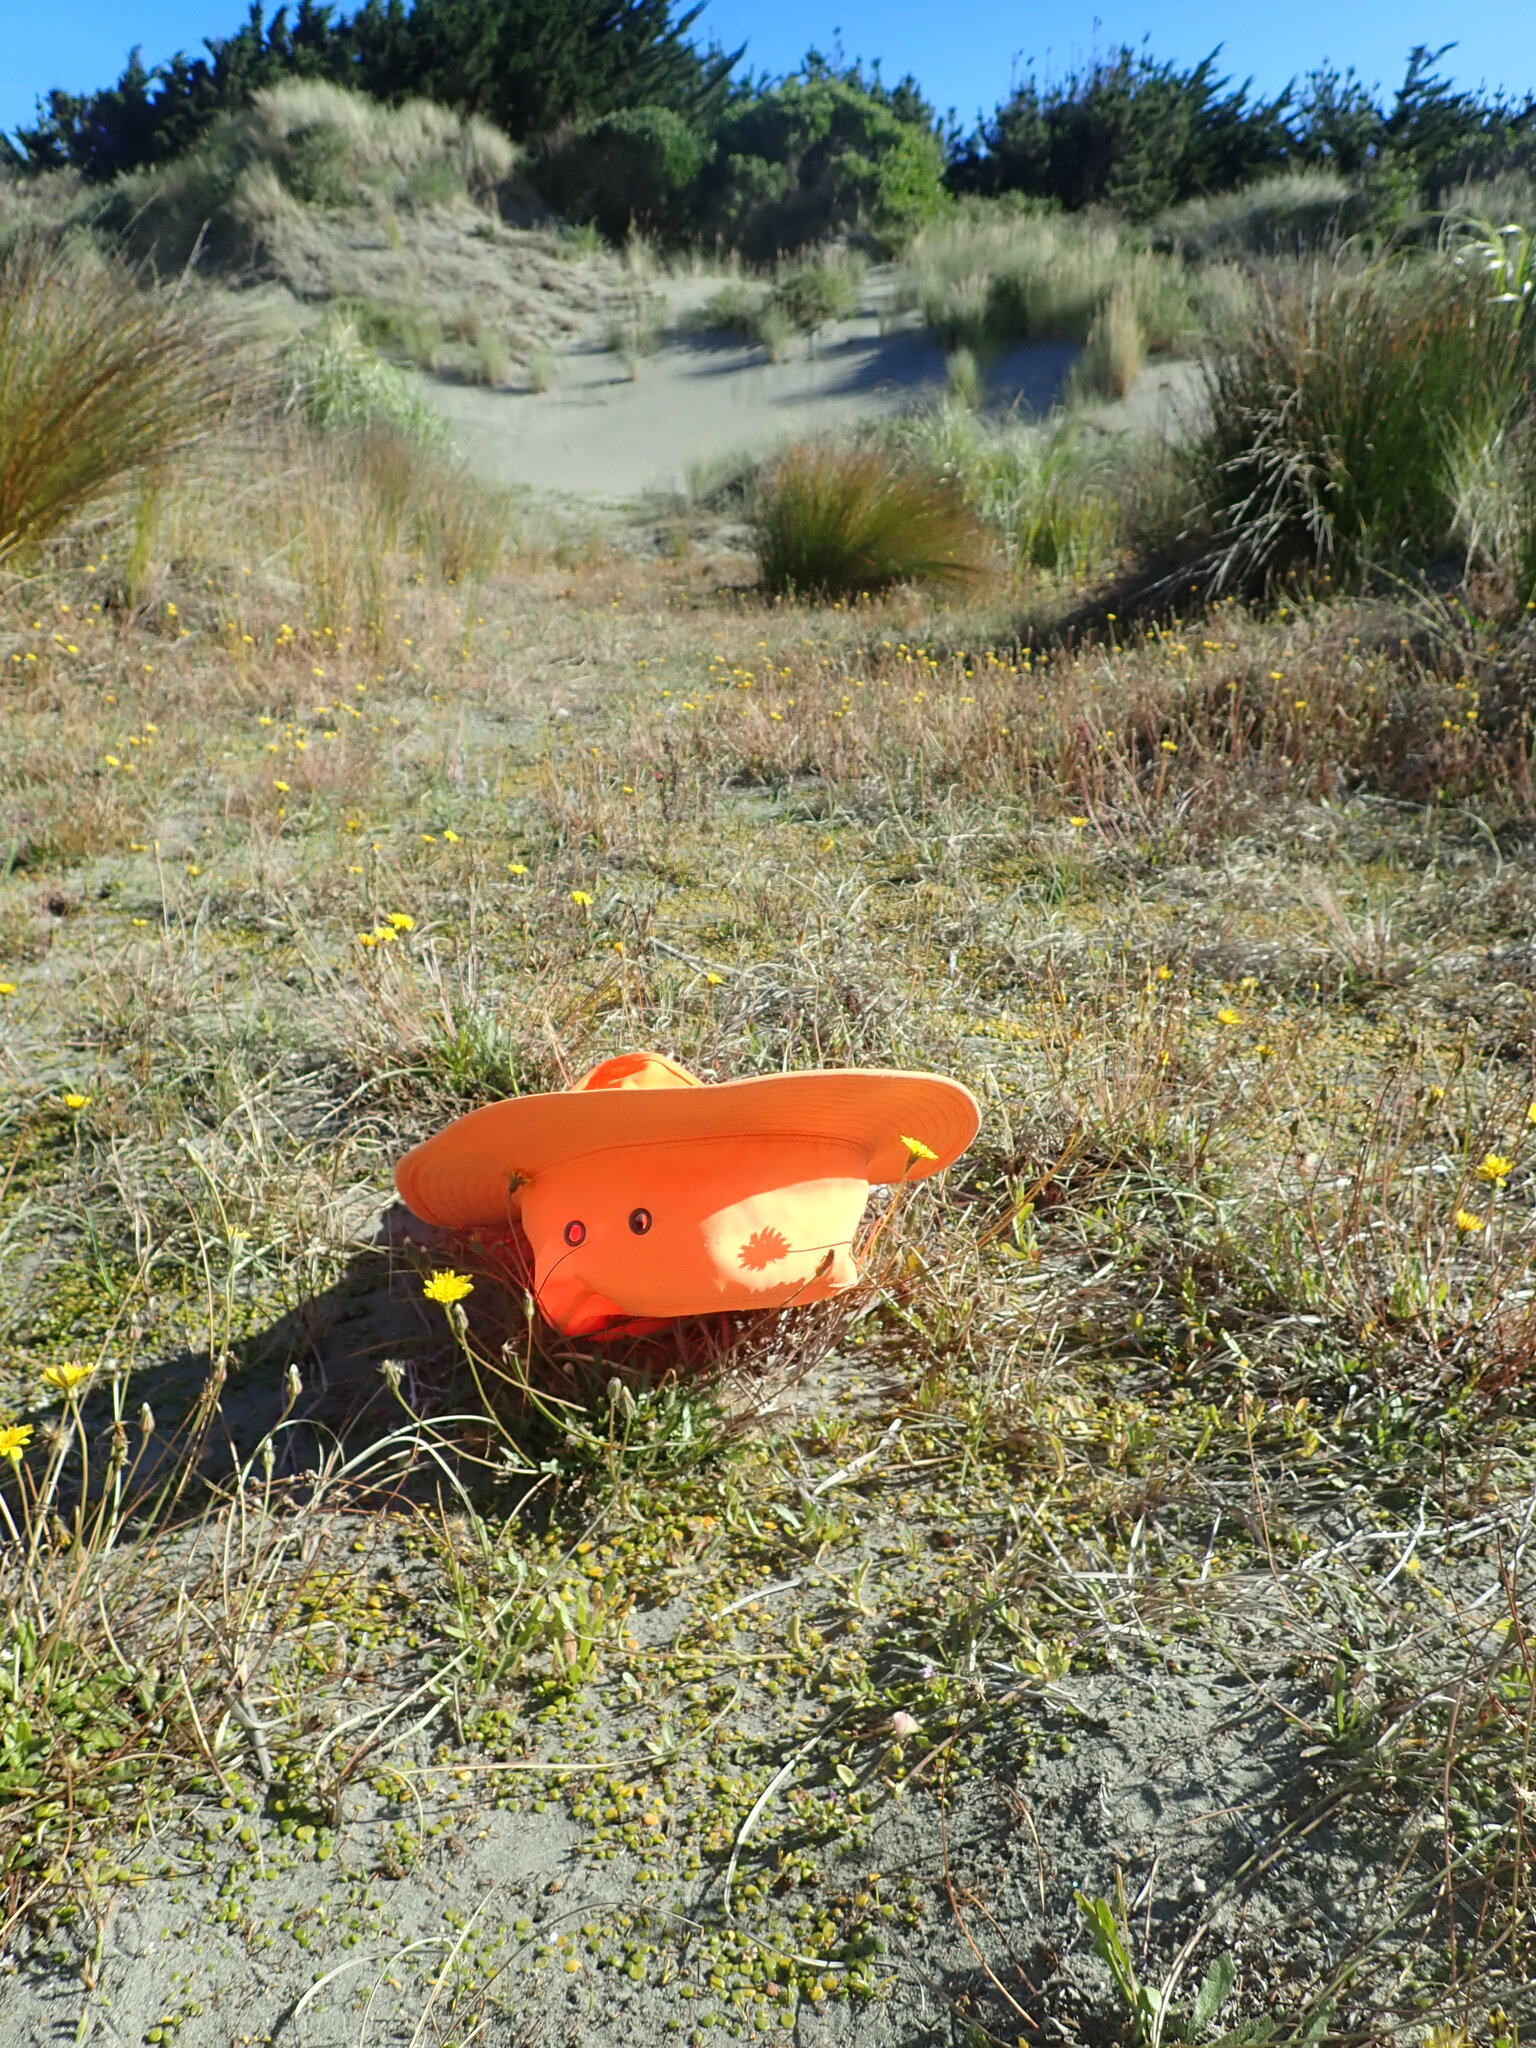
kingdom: Plantae
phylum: Tracheophyta
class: Liliopsida
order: Poales
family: Cyperaceae
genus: Carex
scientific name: Carex pumila
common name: Dwarf sedge
